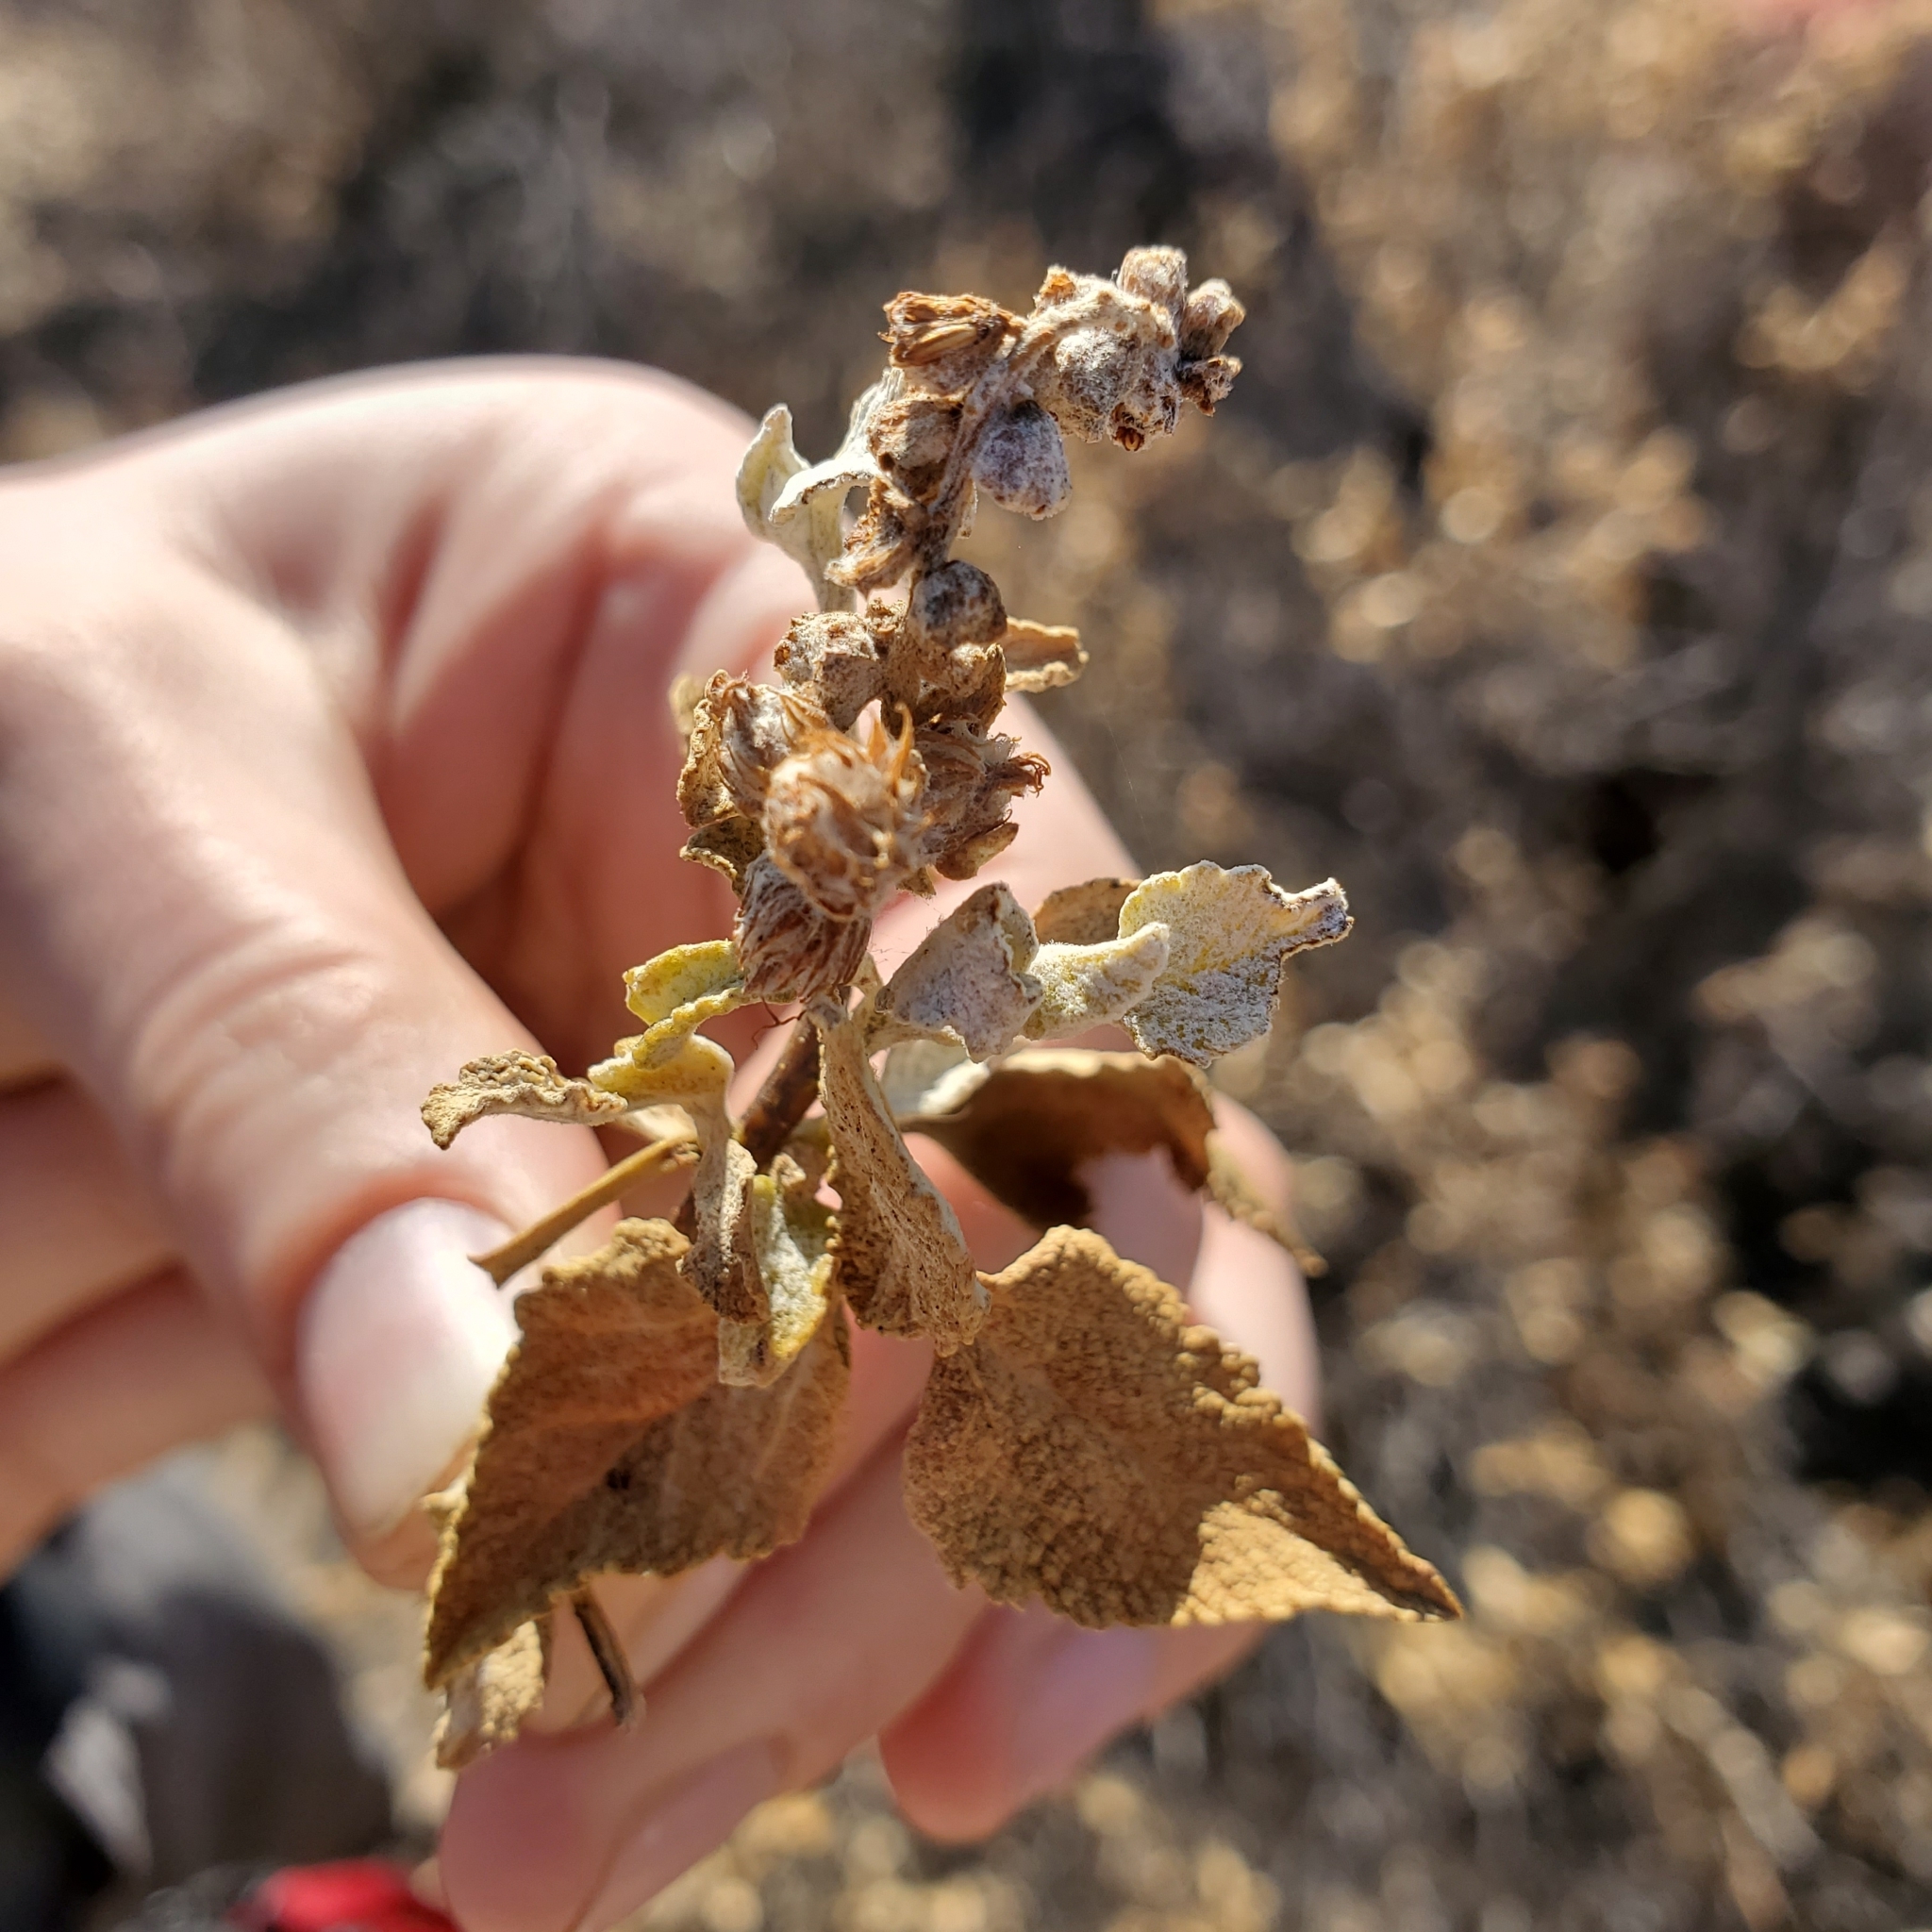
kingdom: Plantae
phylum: Tracheophyta
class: Magnoliopsida
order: Asterales
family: Asteraceae
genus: Ambrosia
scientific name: Ambrosia chenopodiifolia
